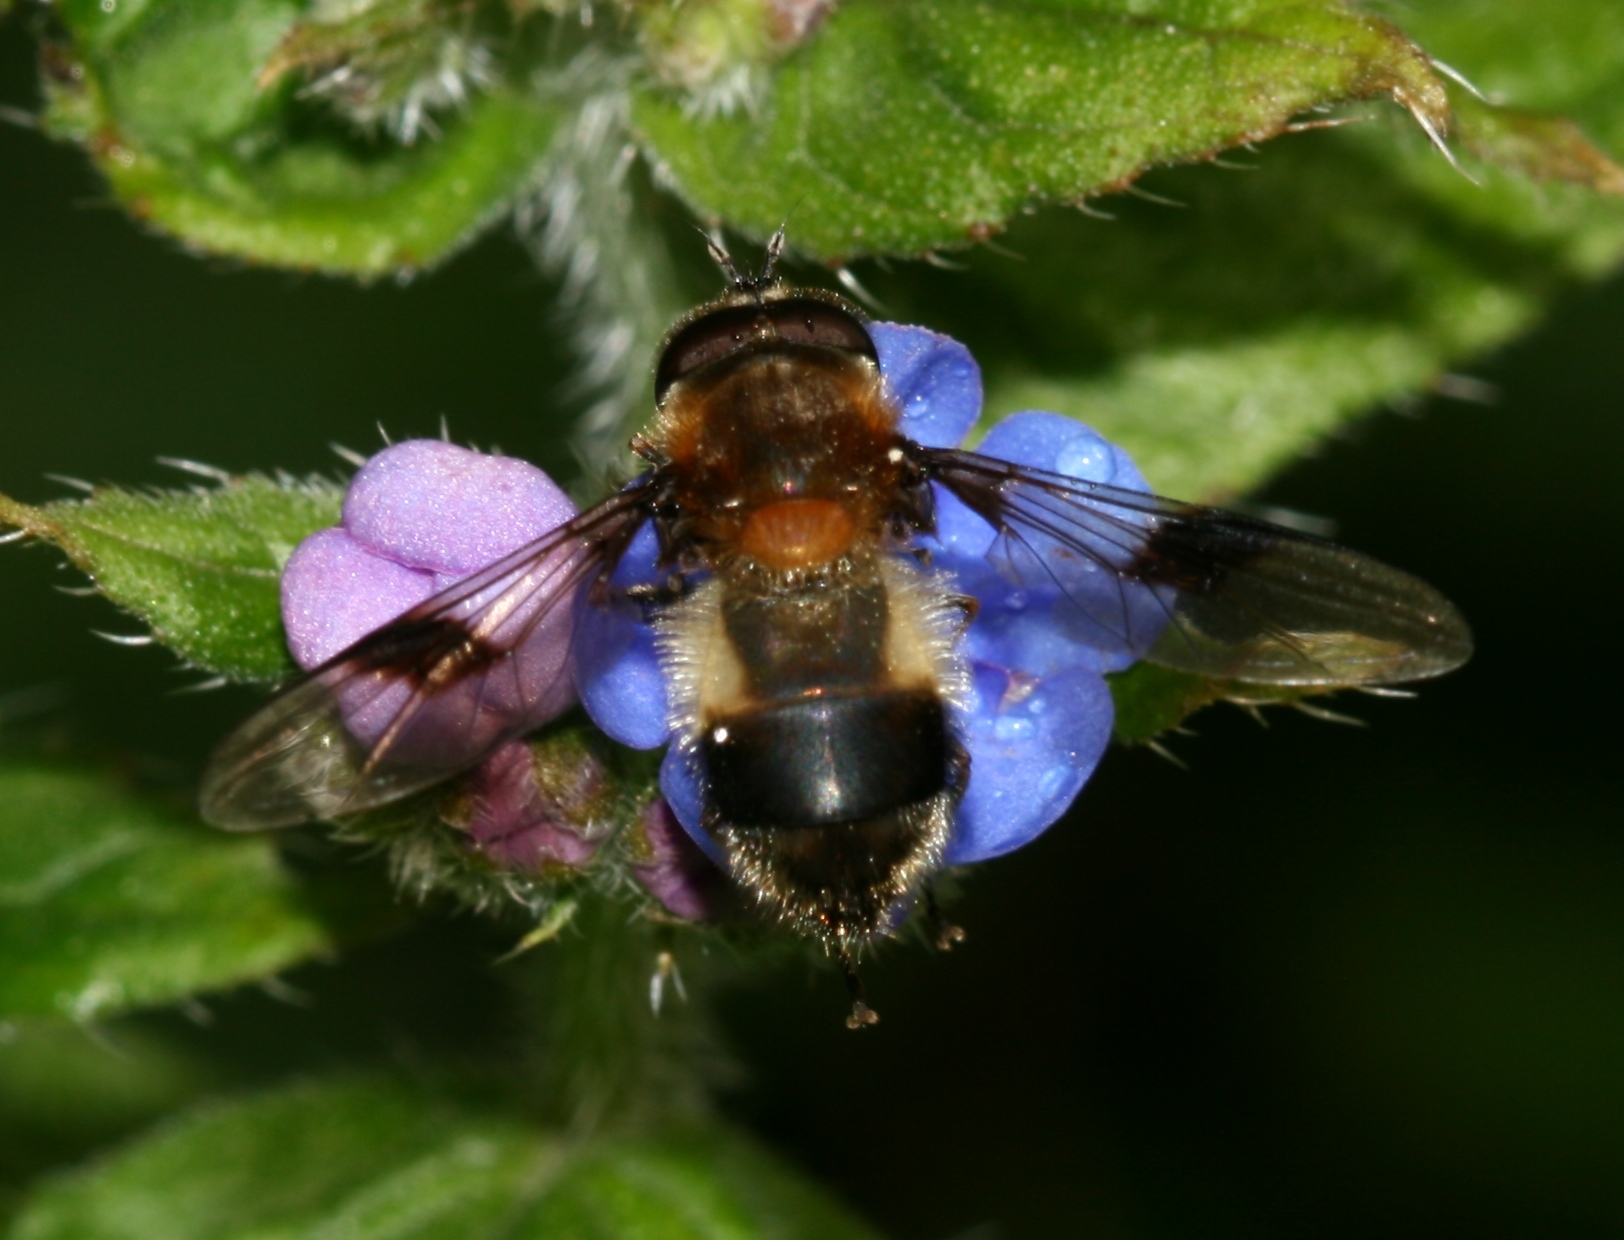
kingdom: Animalia
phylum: Arthropoda
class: Insecta
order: Diptera
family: Syrphidae
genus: Leucozona
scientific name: Leucozona lucorum
